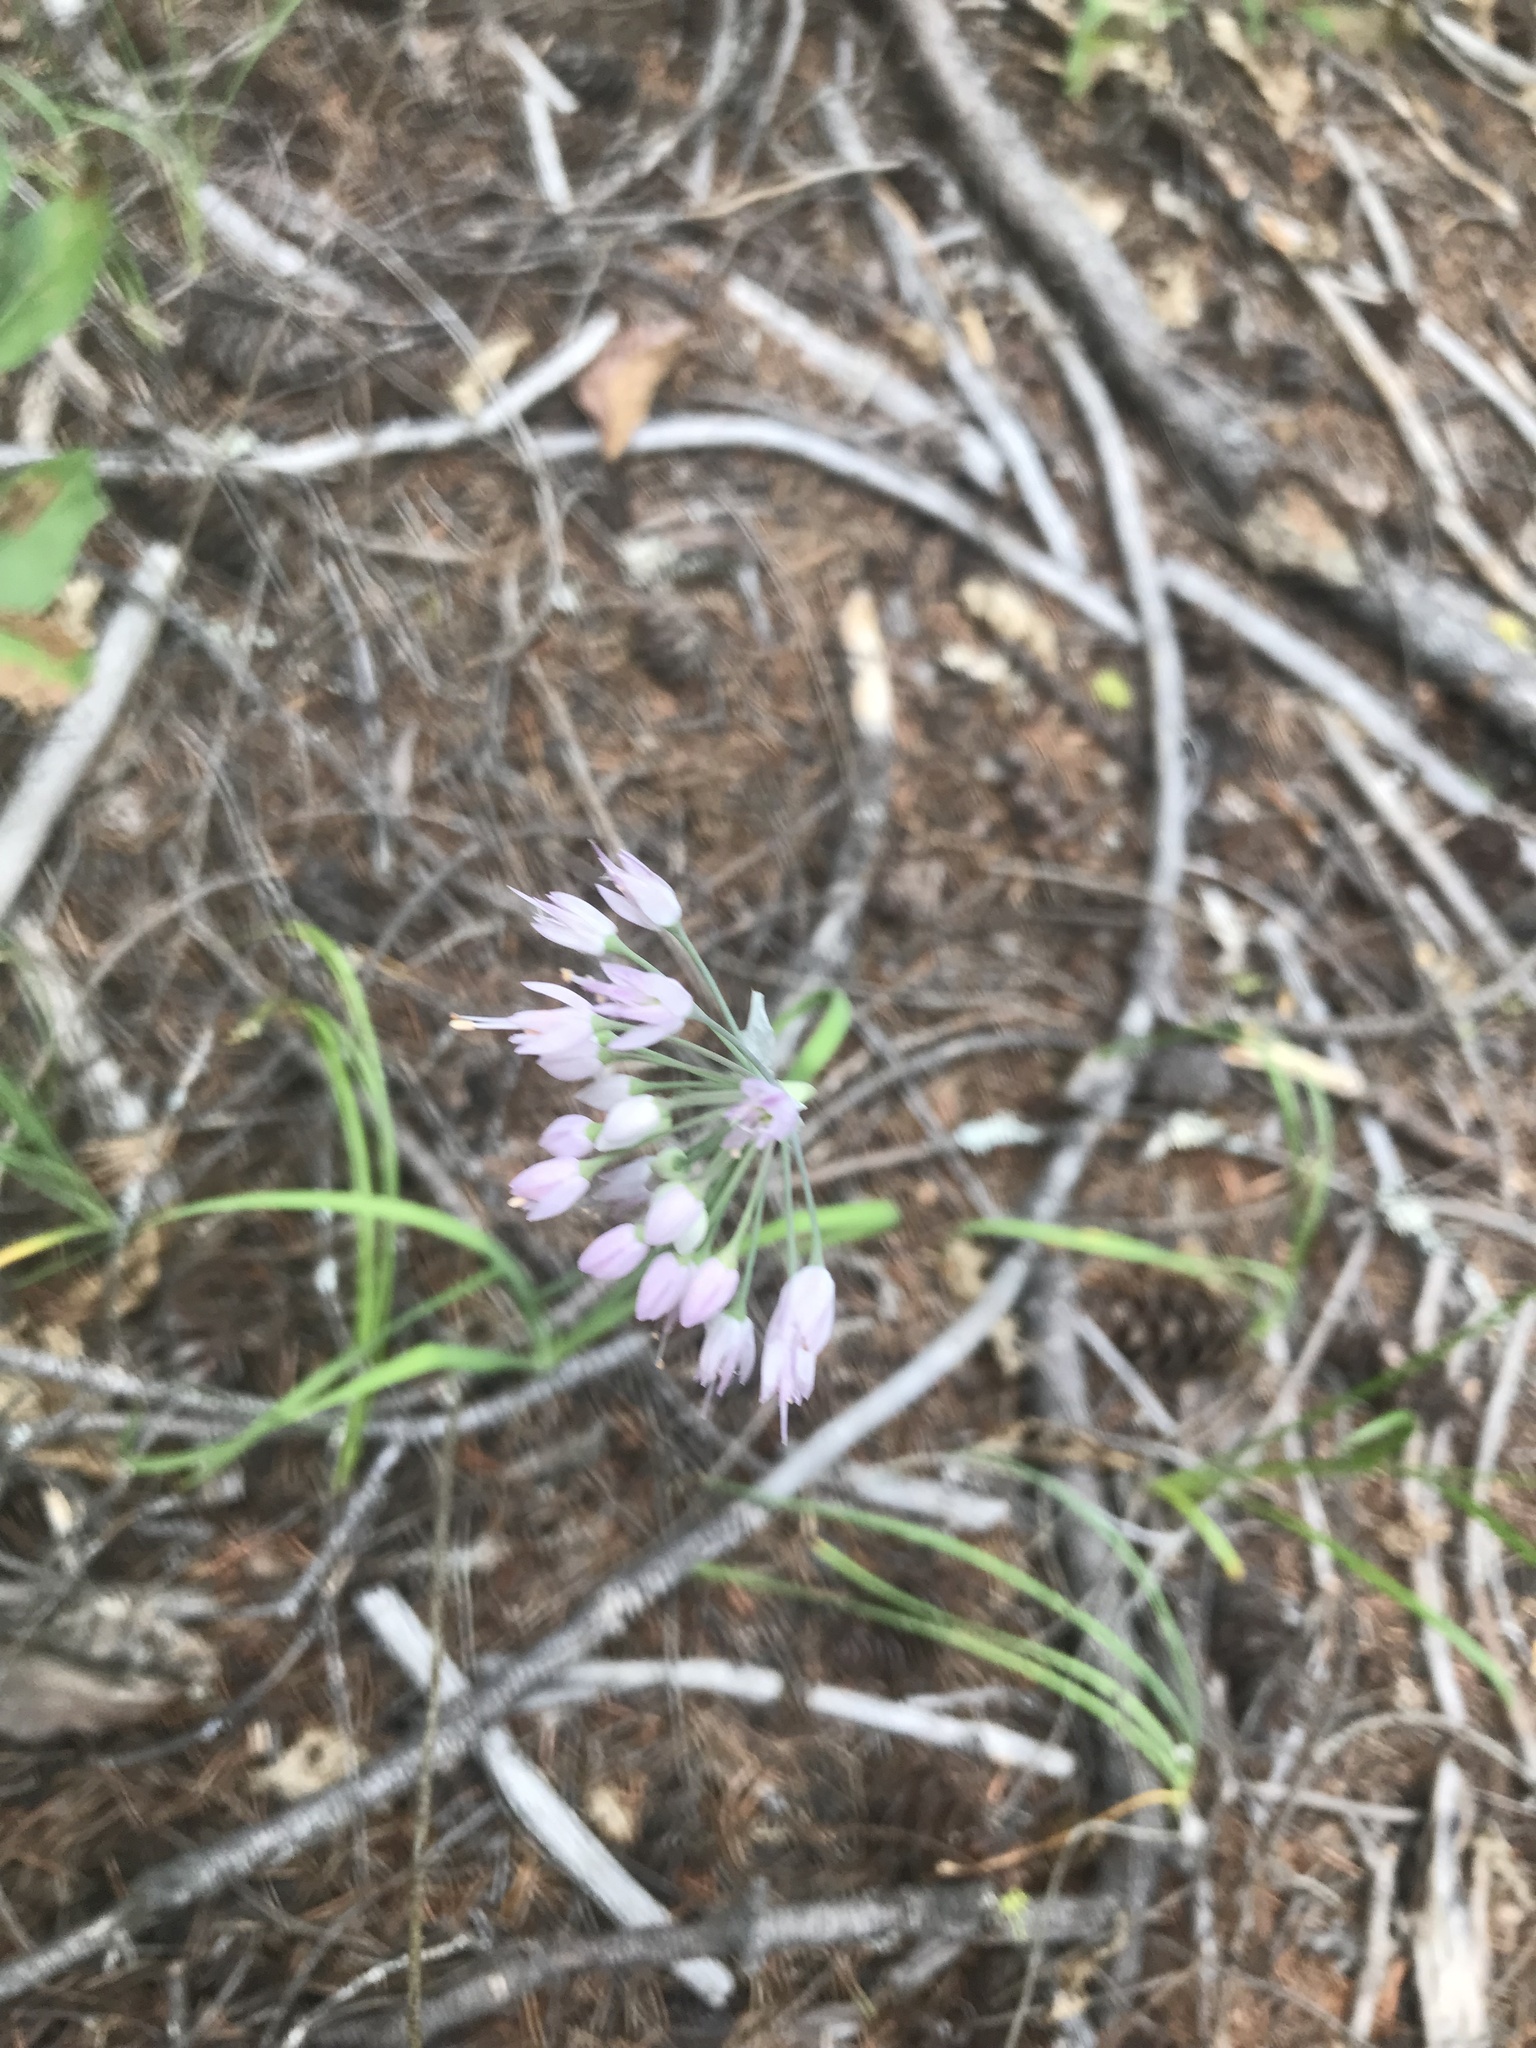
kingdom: Plantae
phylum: Tracheophyta
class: Liliopsida
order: Asparagales
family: Amaryllidaceae
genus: Allium
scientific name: Allium cernuum
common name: Nodding onion
